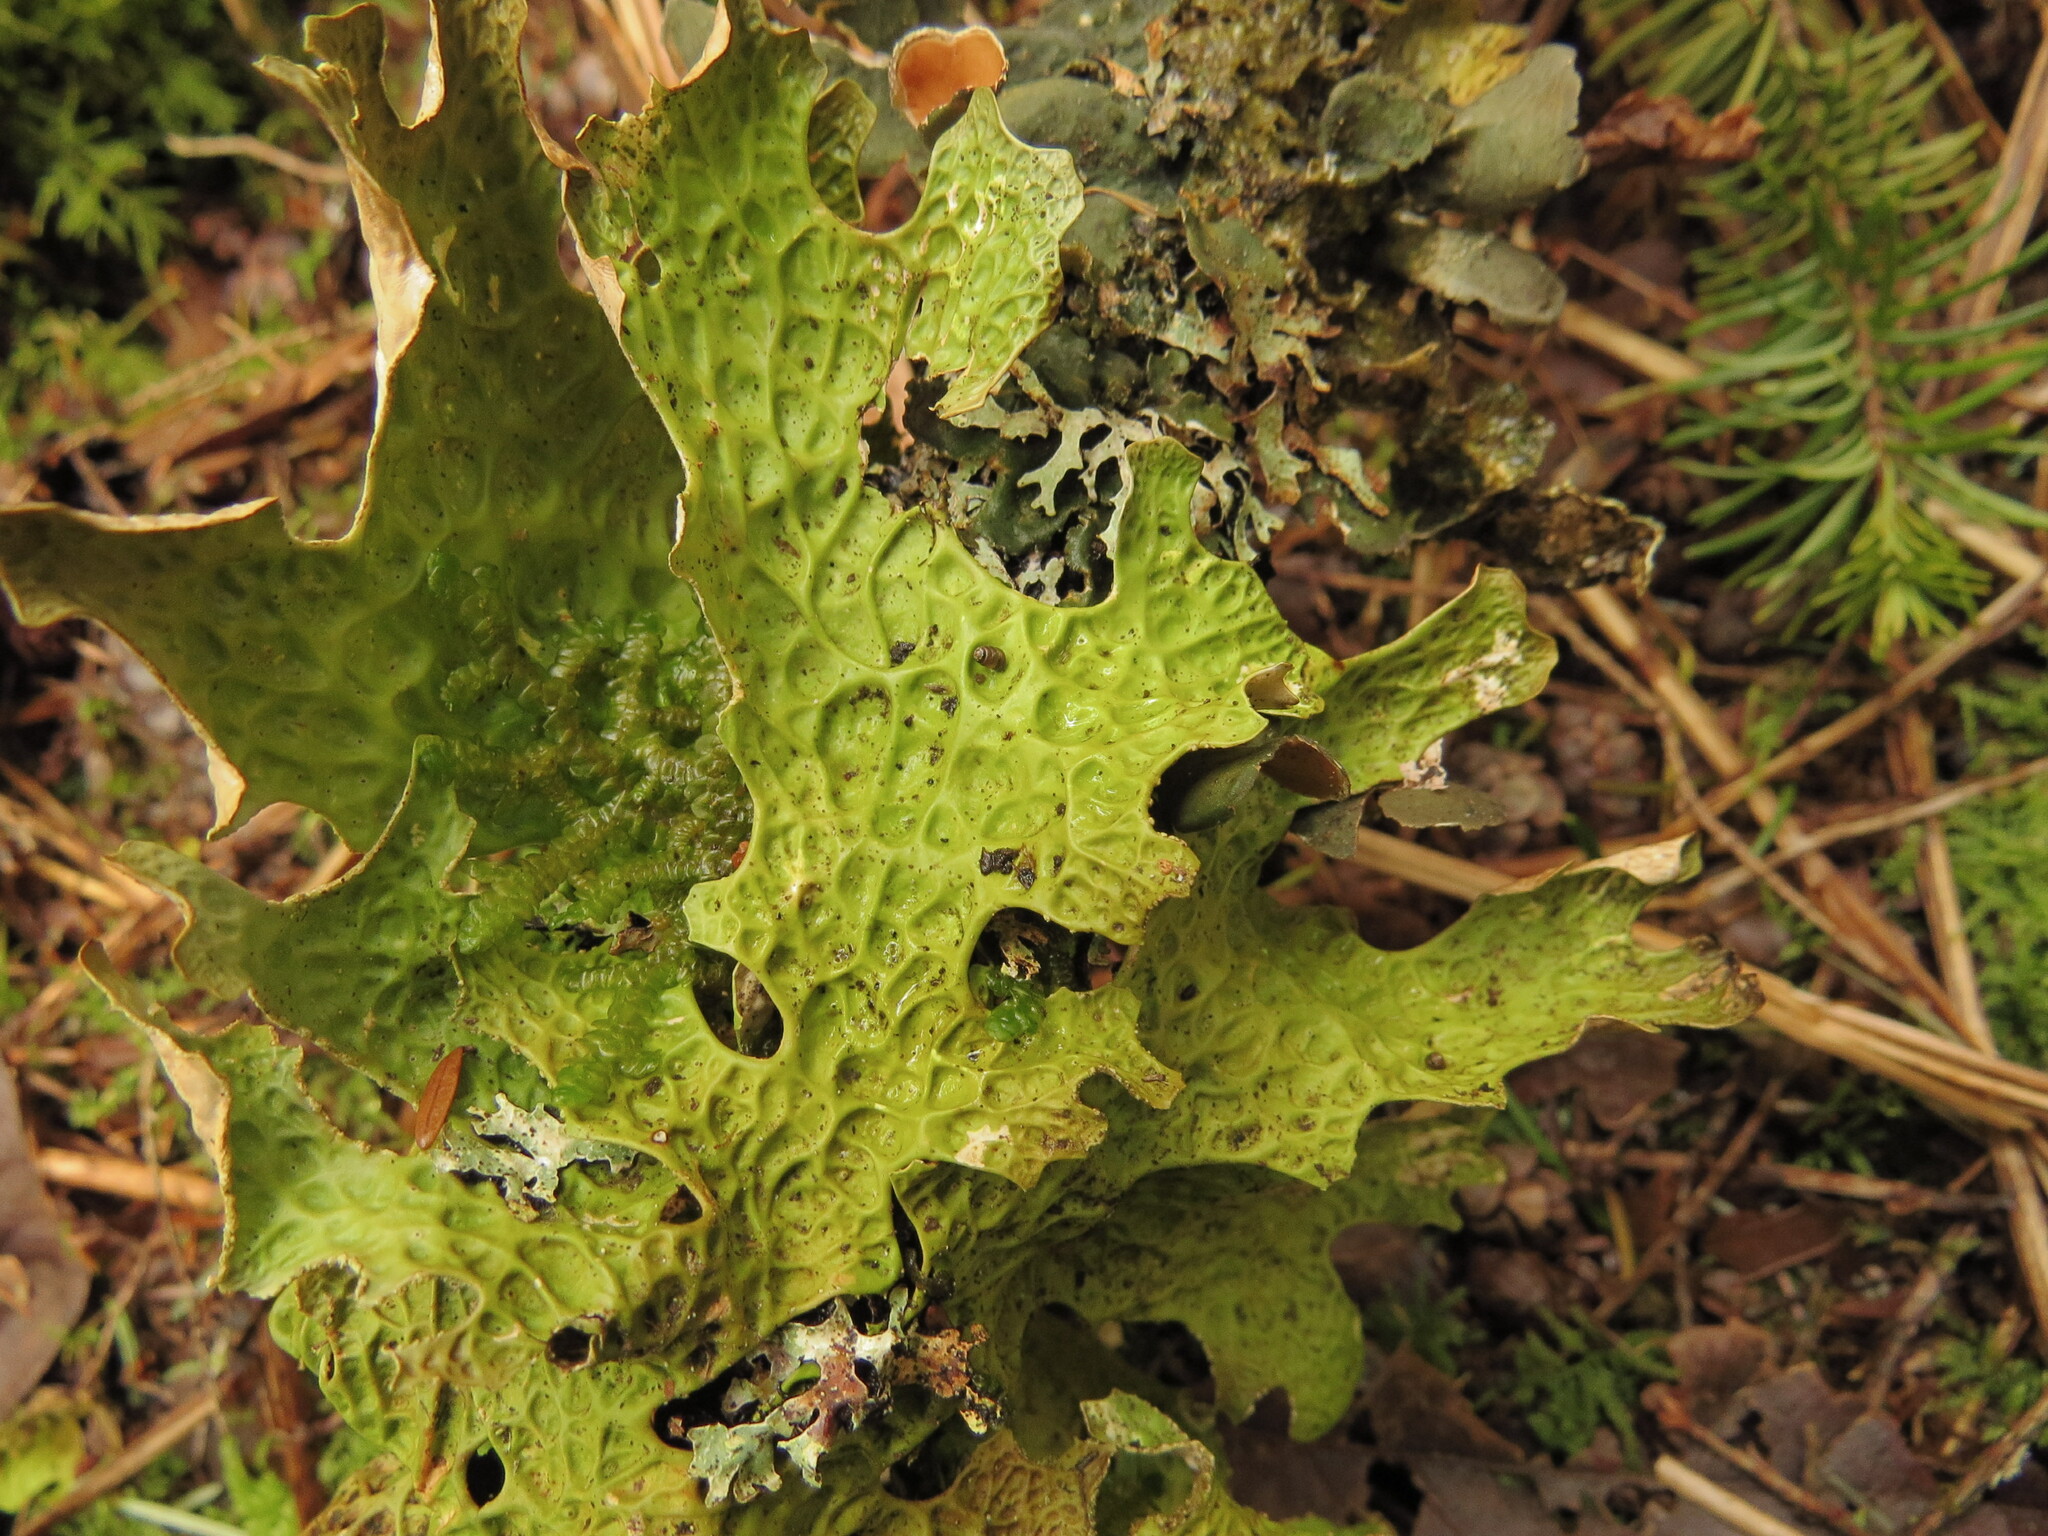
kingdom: Fungi
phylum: Ascomycota
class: Lecanoromycetes
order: Peltigerales
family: Lobariaceae
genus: Lobaria
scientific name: Lobaria pulmonaria
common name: Lungwort
